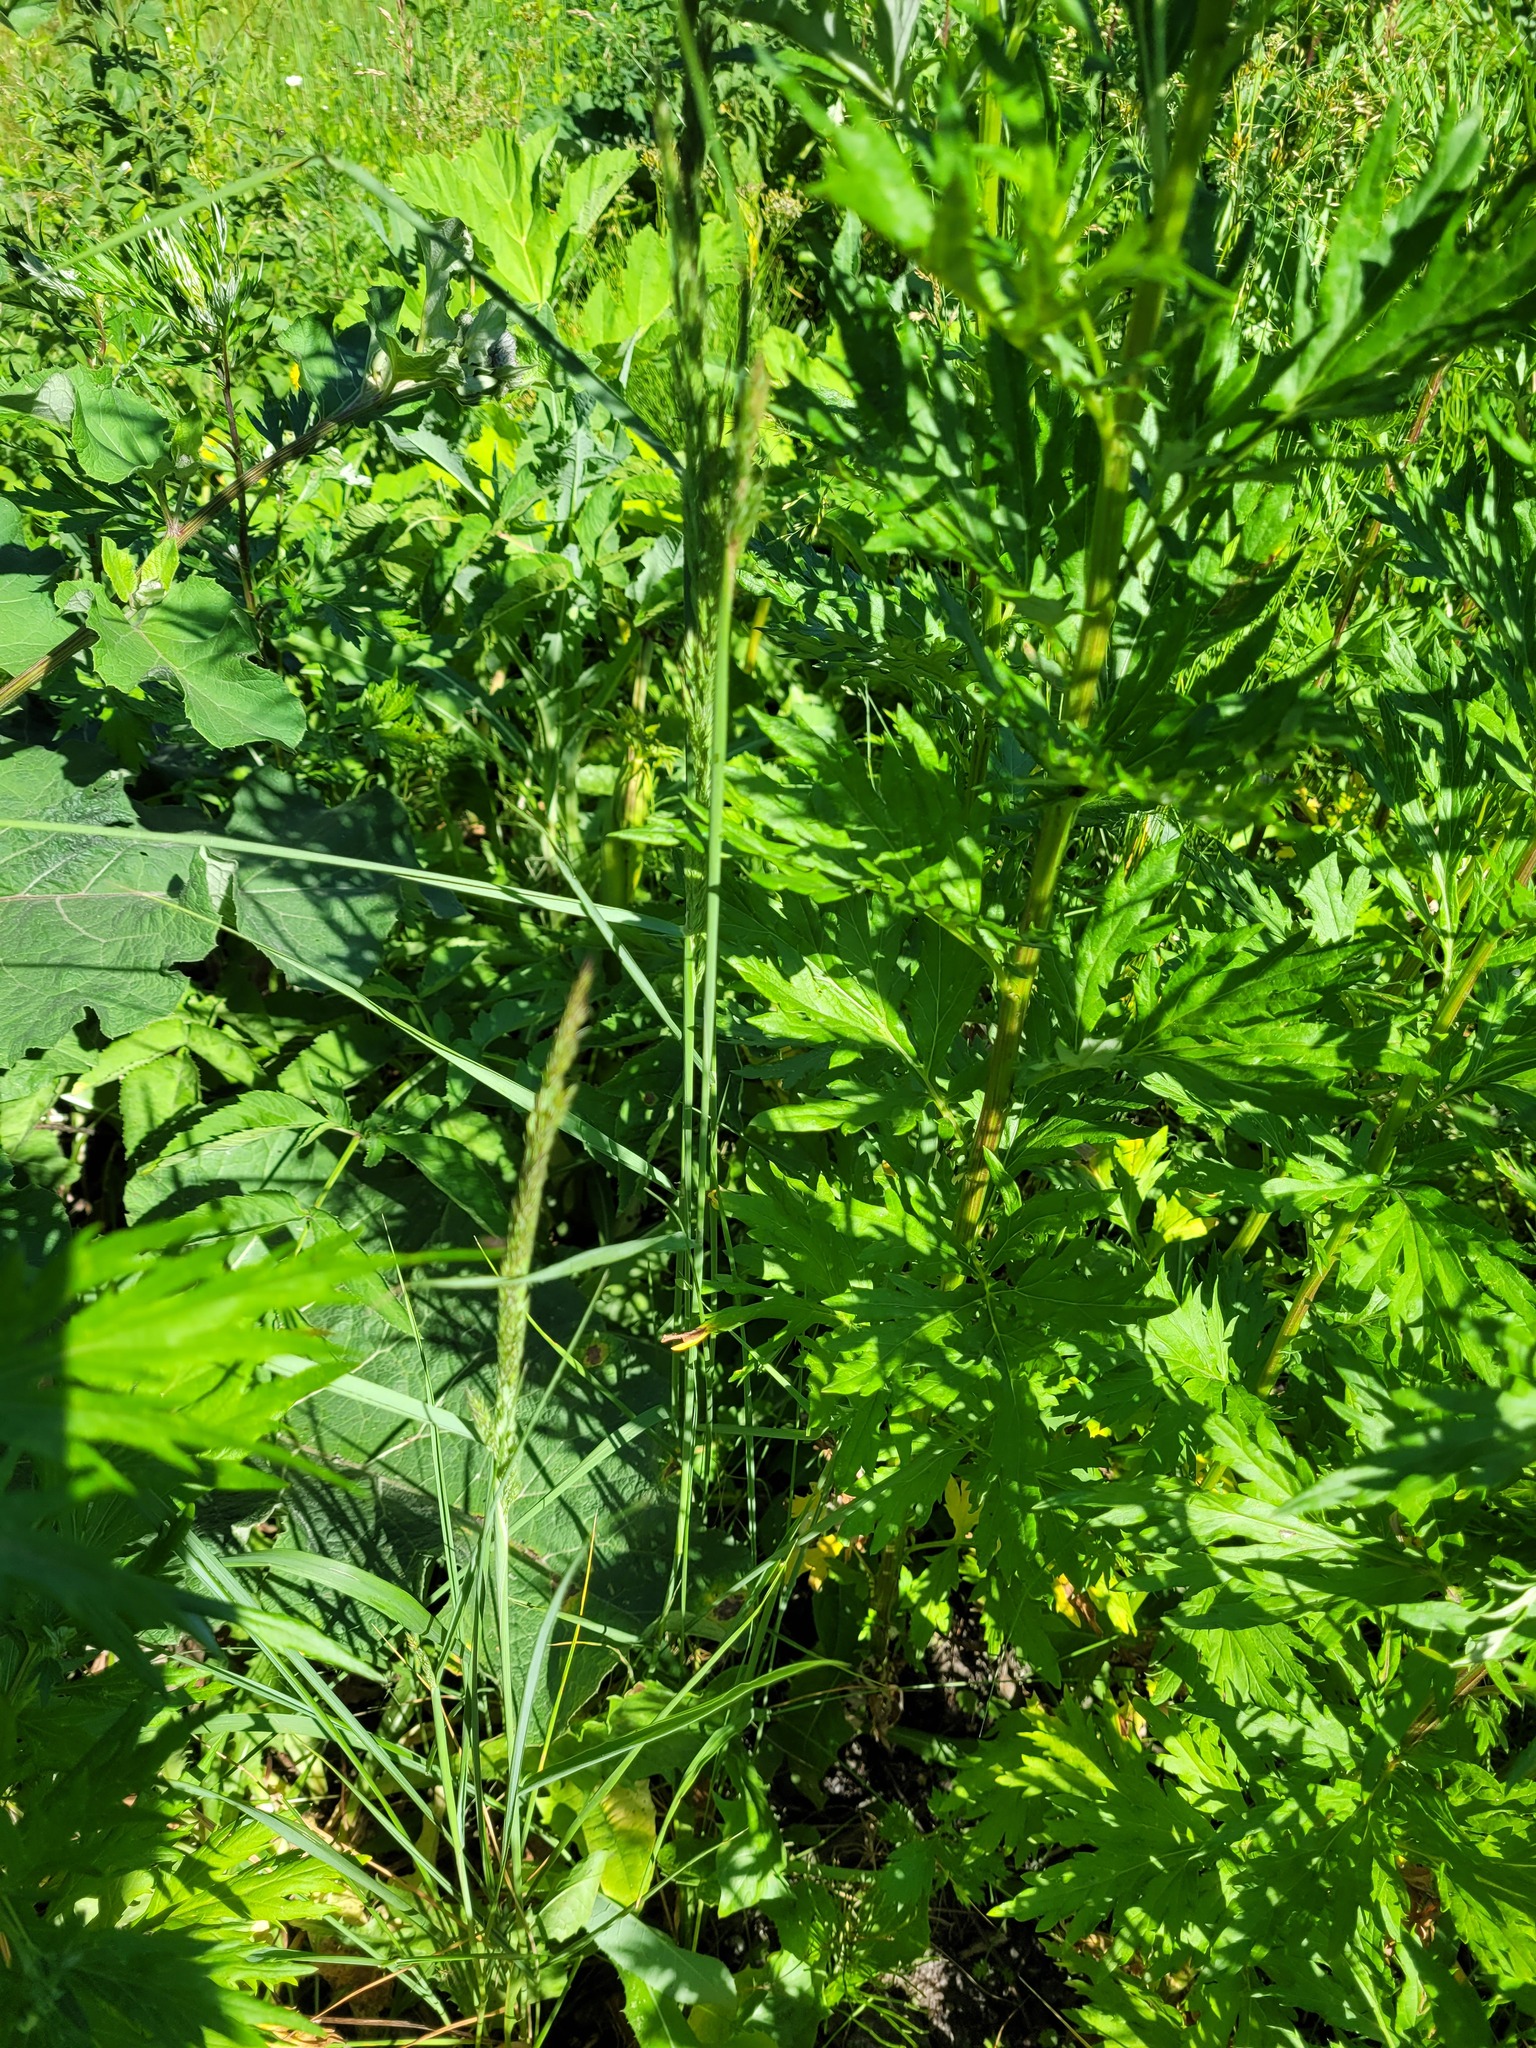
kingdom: Plantae
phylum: Tracheophyta
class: Liliopsida
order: Poales
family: Poaceae
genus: Calamagrostis
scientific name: Calamagrostis epigejos
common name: Wood small-reed
